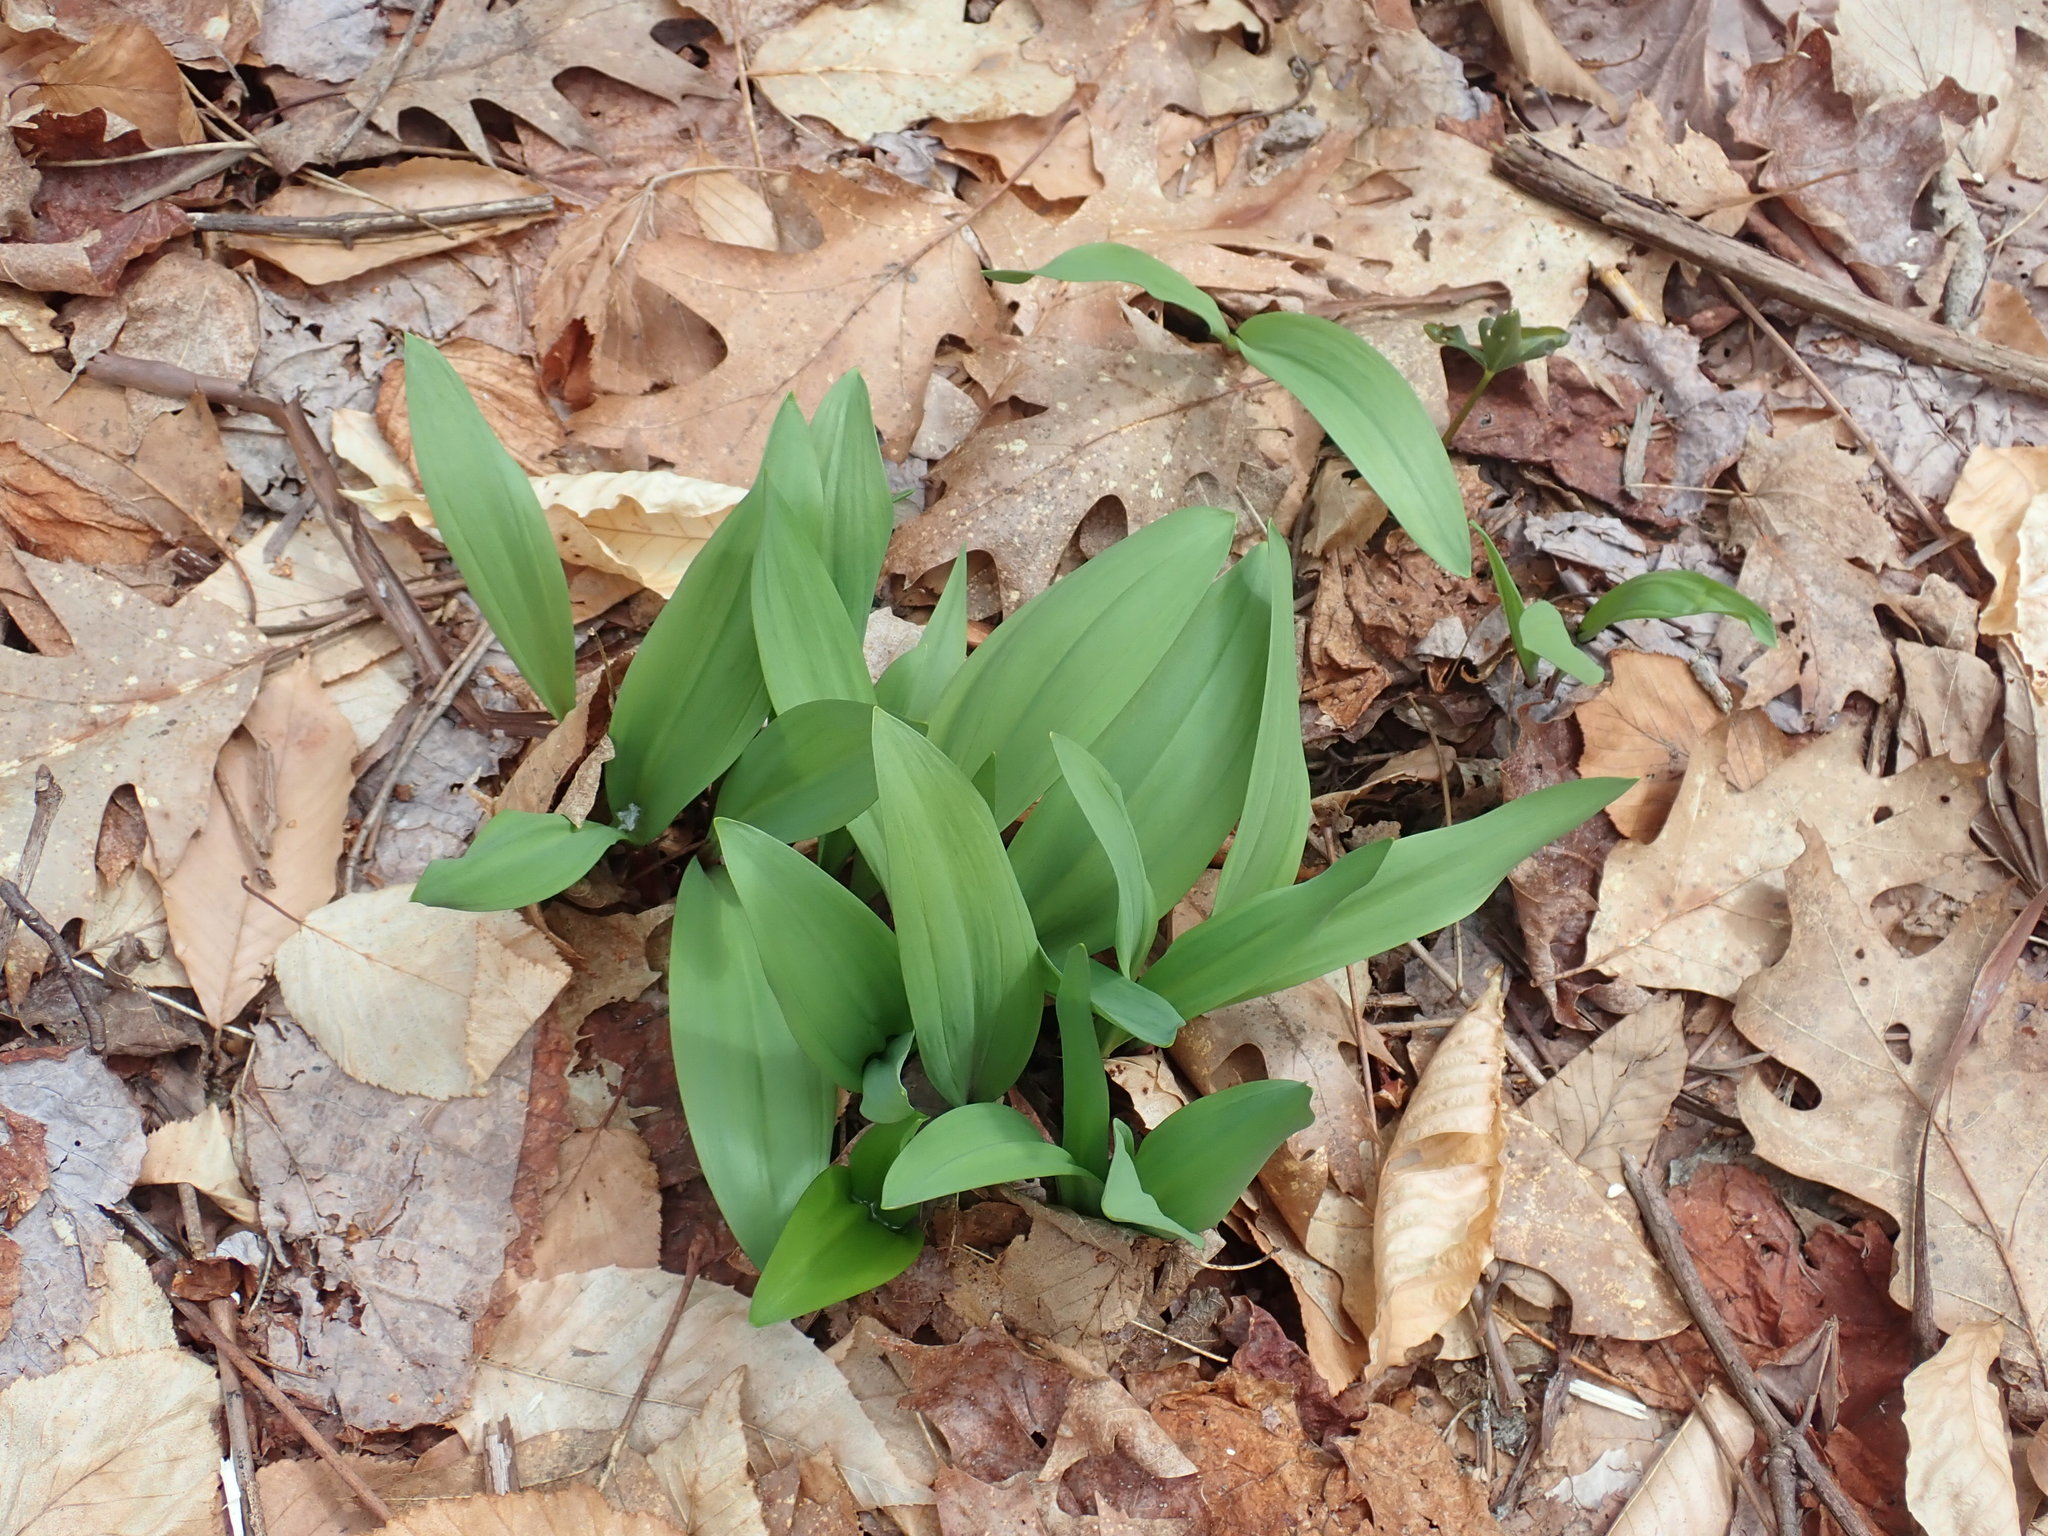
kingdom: Plantae
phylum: Tracheophyta
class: Liliopsida
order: Asparagales
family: Amaryllidaceae
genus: Allium
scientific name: Allium tricoccum
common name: Ramp
